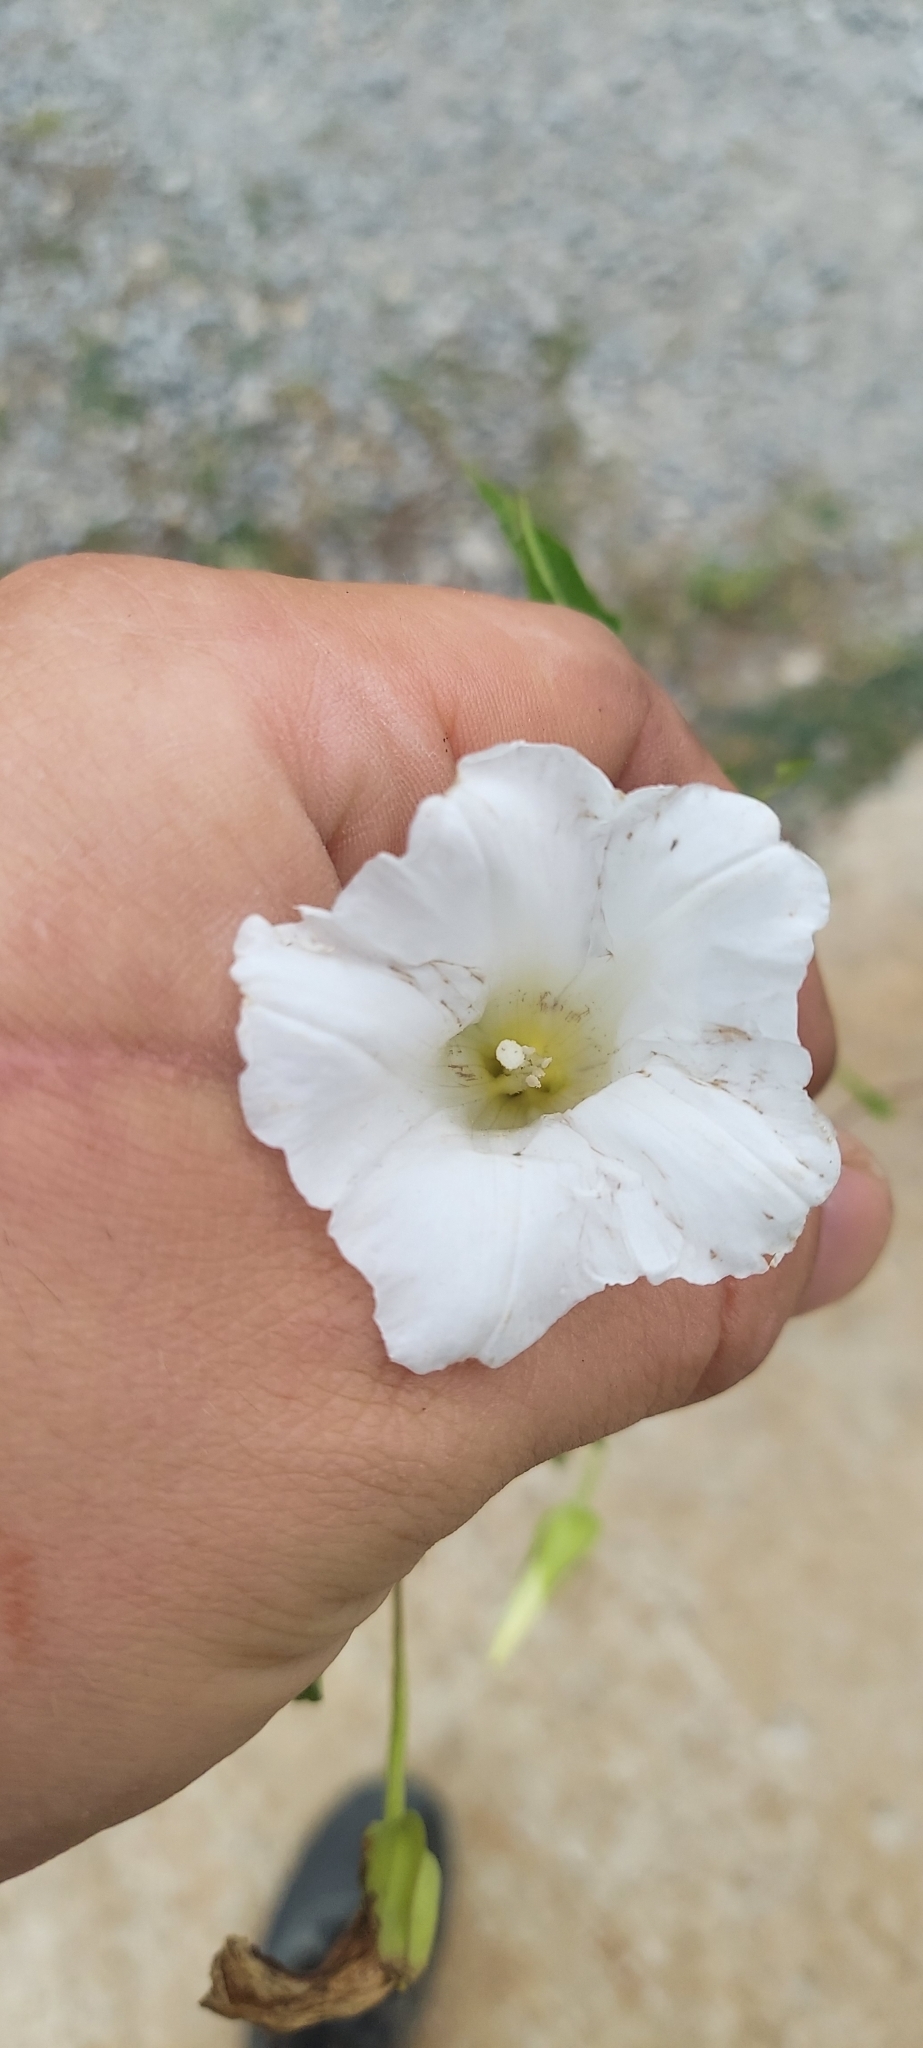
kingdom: Plantae
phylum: Tracheophyta
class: Magnoliopsida
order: Solanales
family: Convolvulaceae
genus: Calystegia
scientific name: Calystegia sepium
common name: Hedge bindweed
